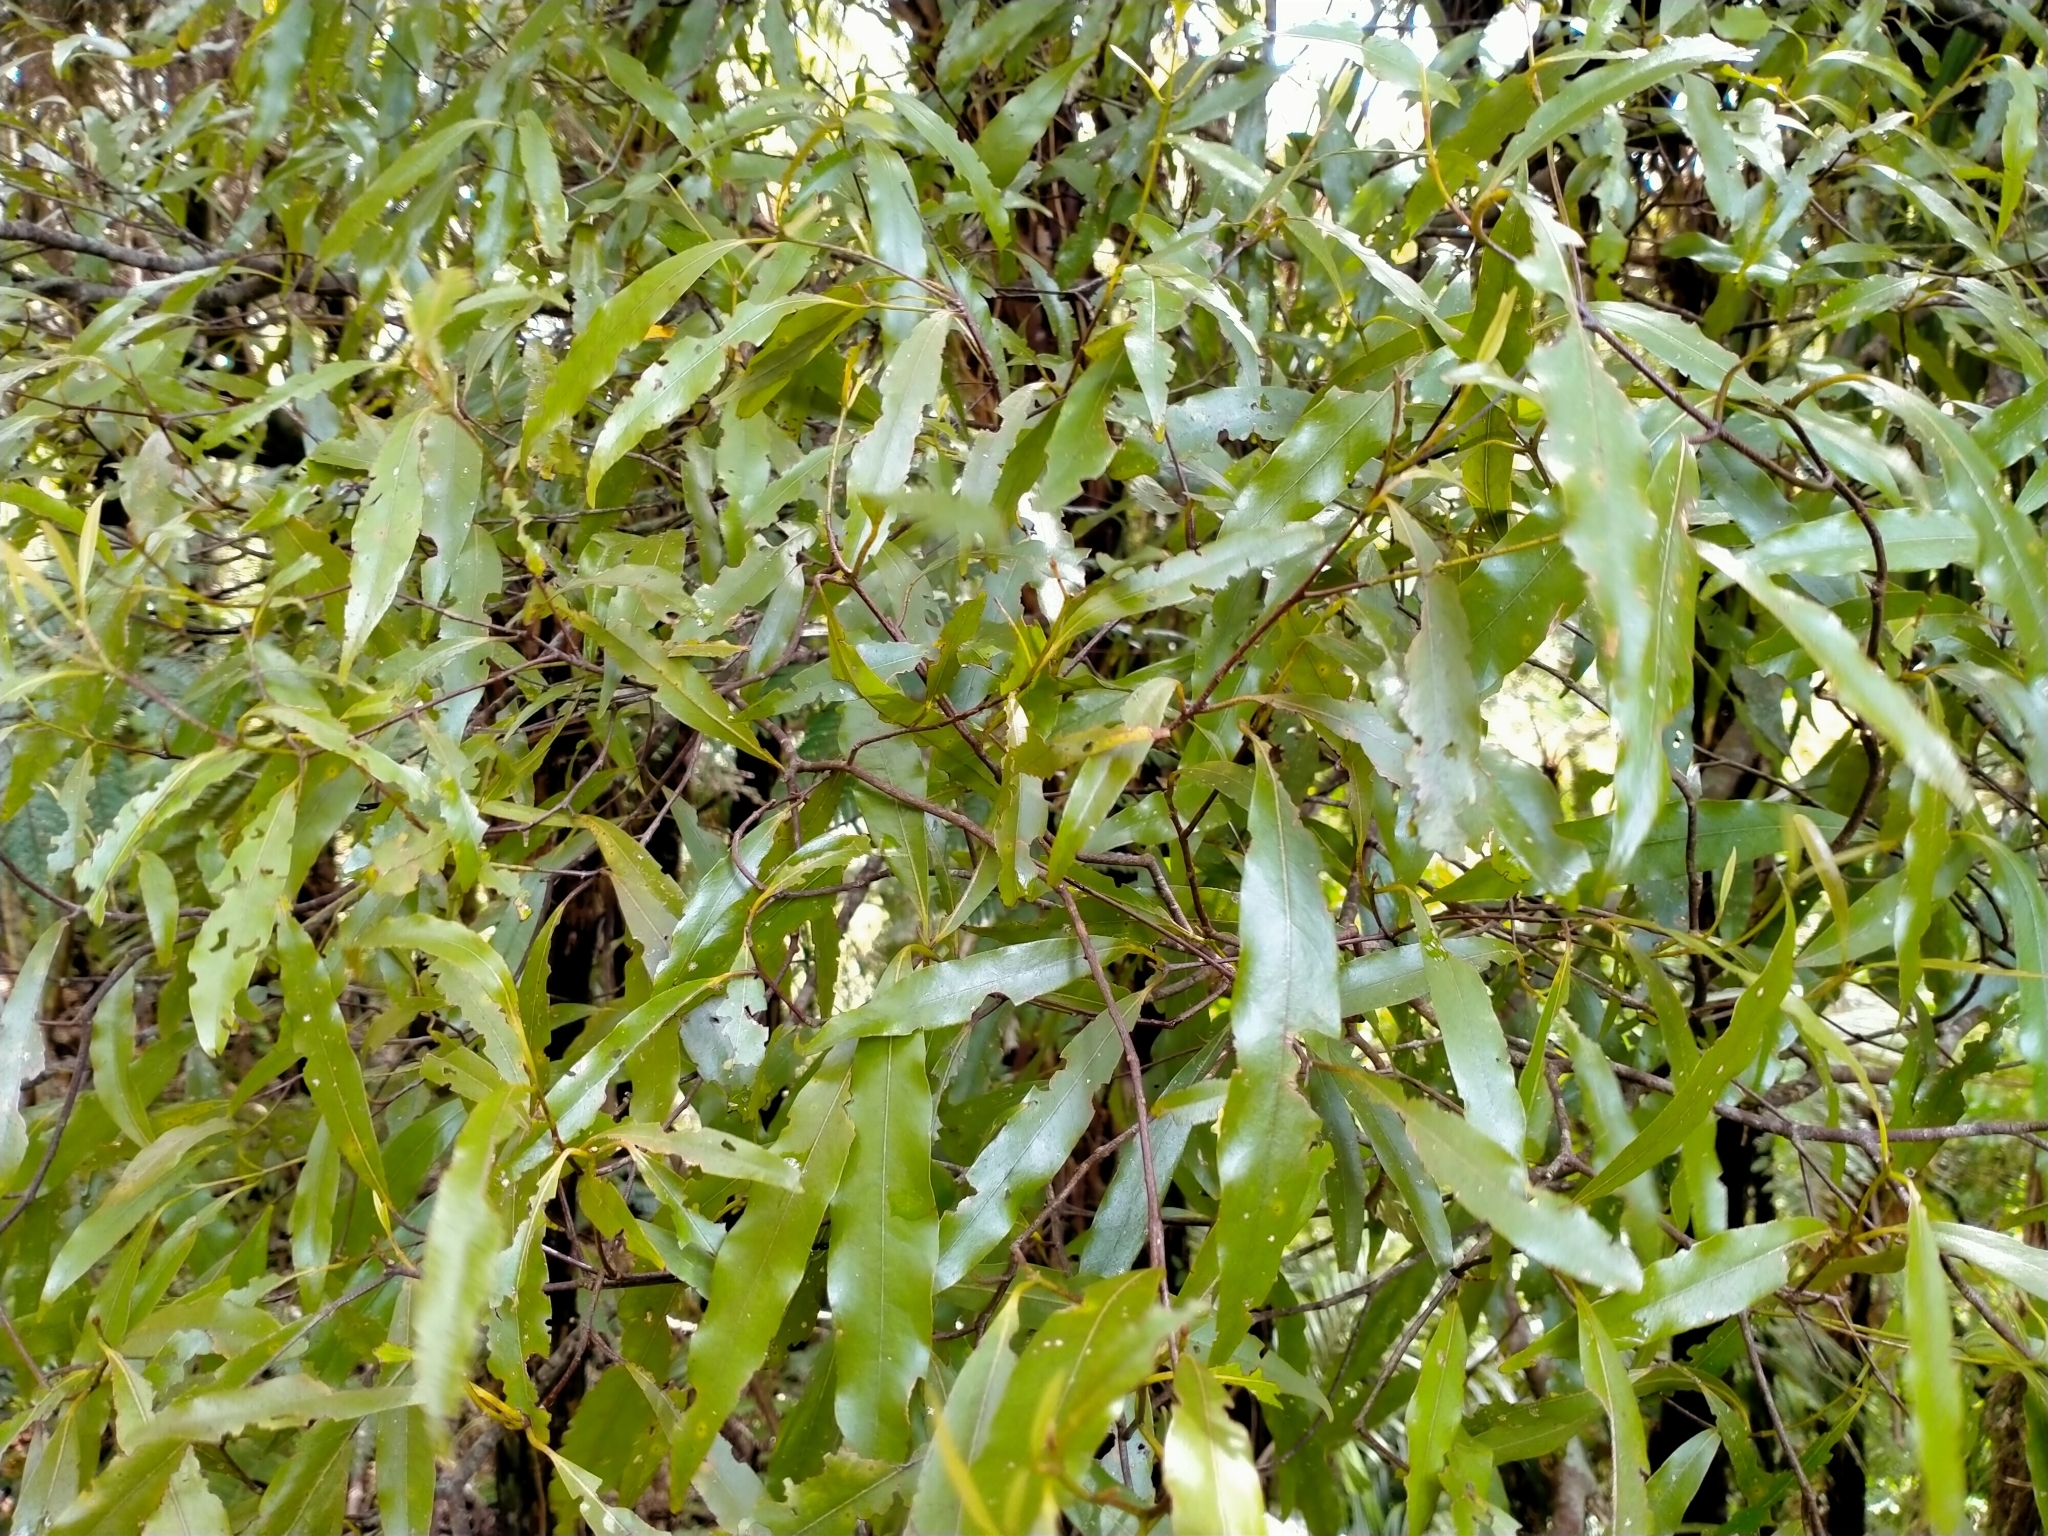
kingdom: Plantae
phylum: Tracheophyta
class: Magnoliopsida
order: Laurales
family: Lauraceae
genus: Beilschmiedia
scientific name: Beilschmiedia tawa
